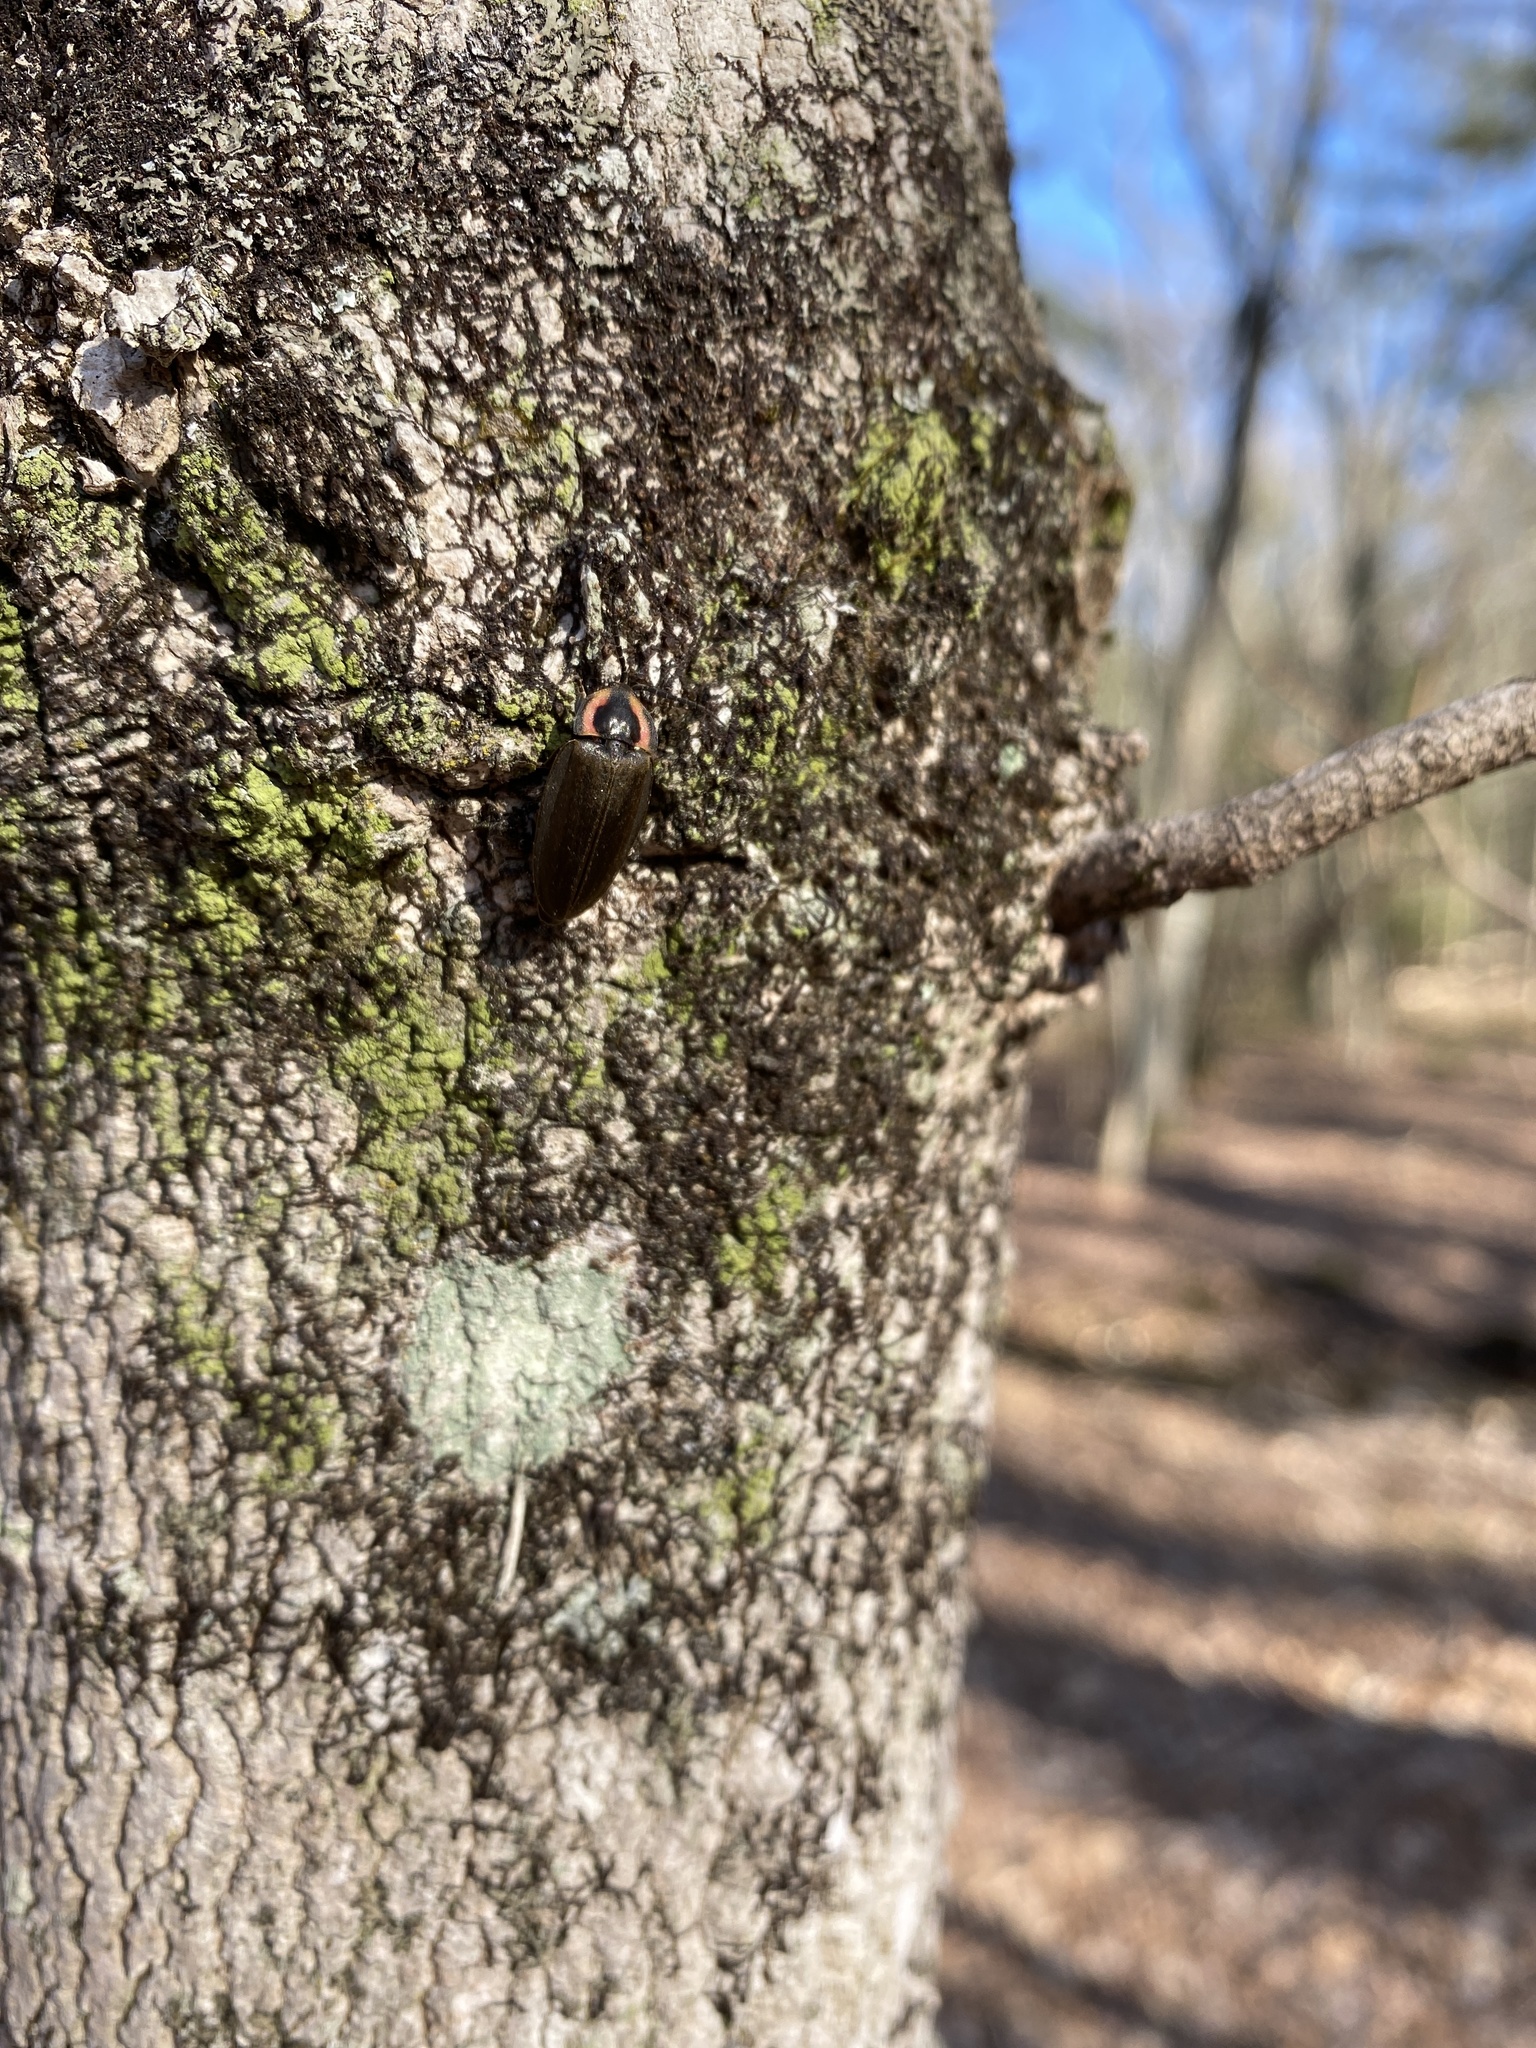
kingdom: Animalia
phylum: Arthropoda
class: Insecta
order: Coleoptera
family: Lampyridae
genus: Photinus
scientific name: Photinus corrusca
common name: Winter firefly
